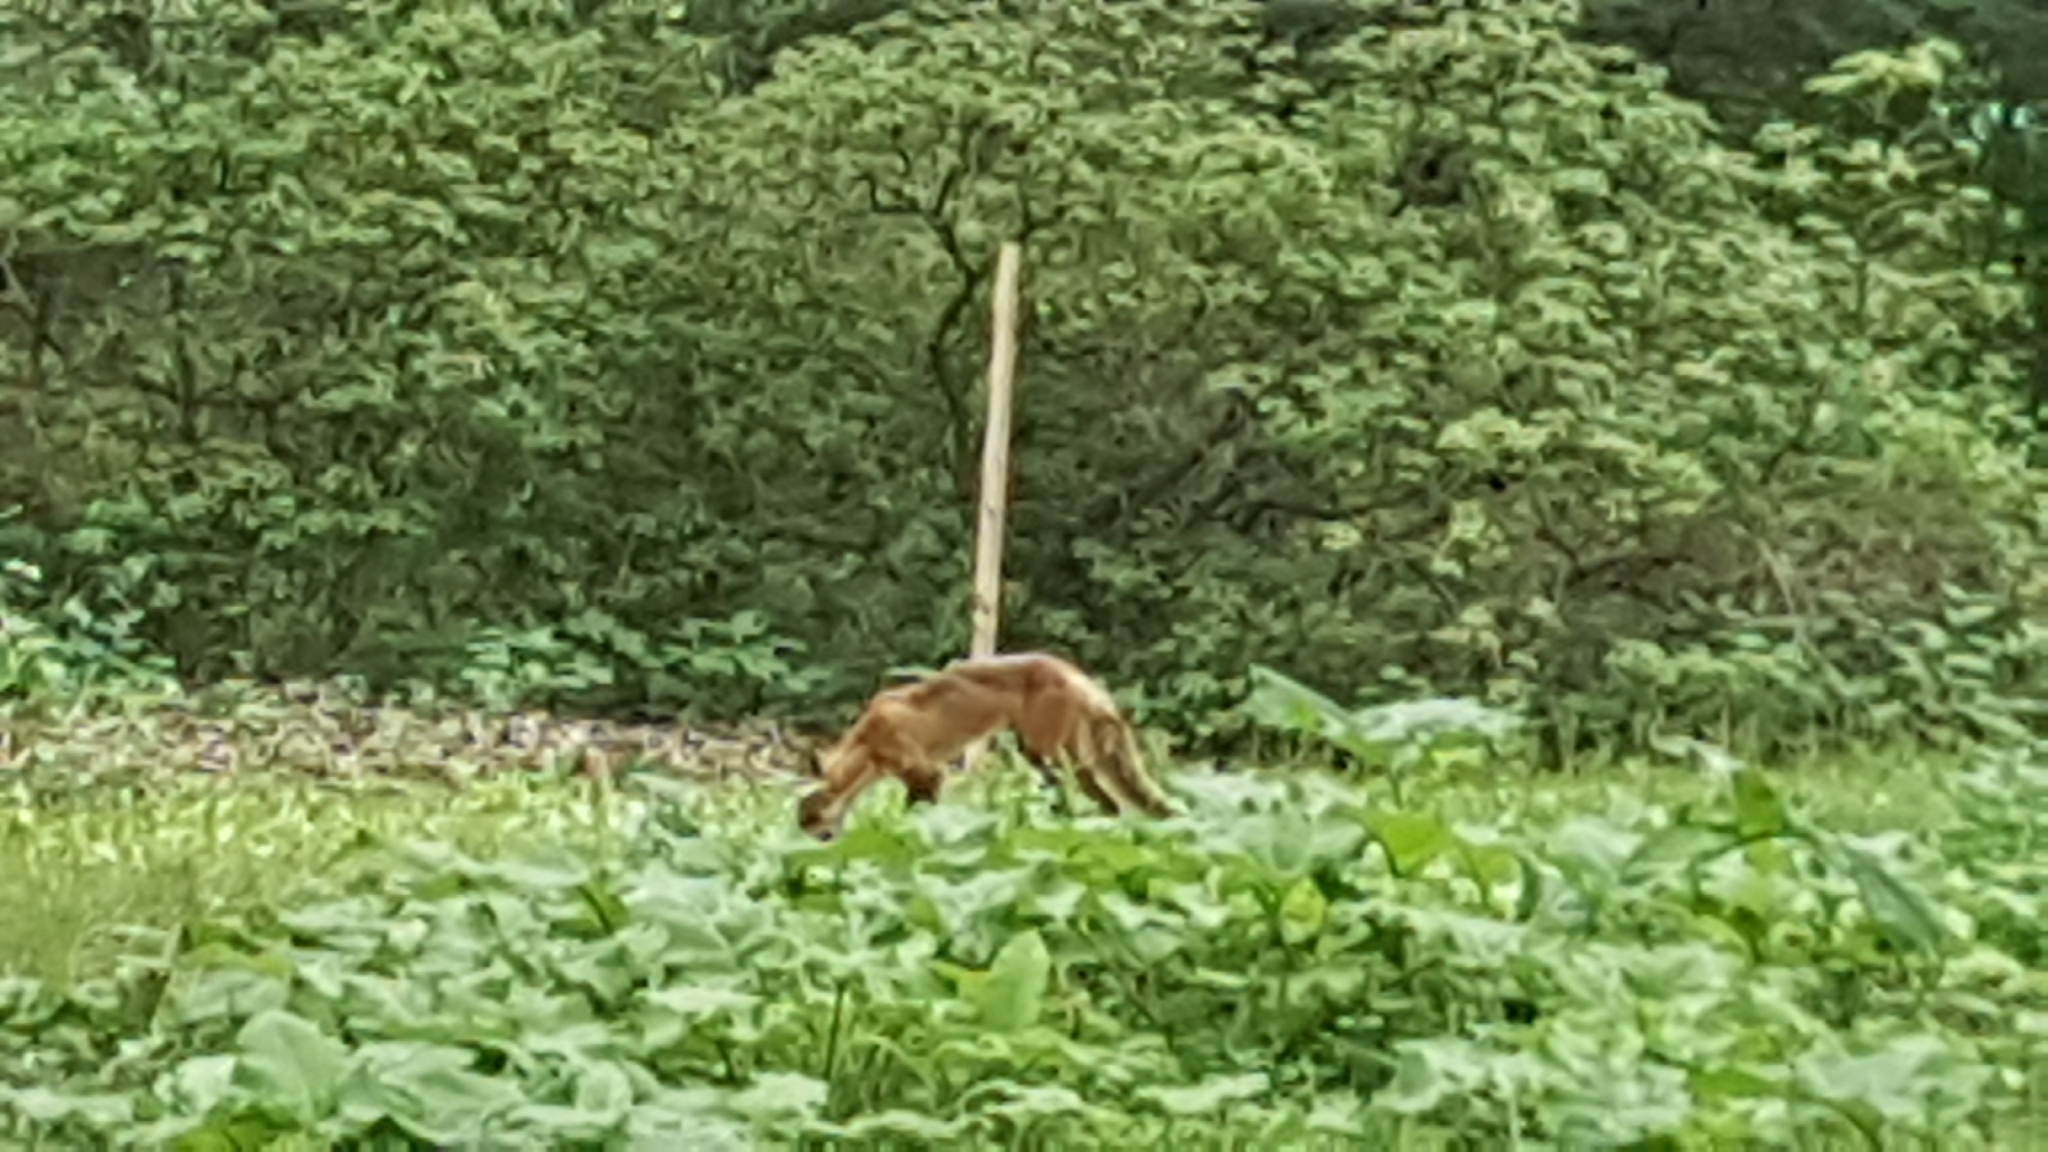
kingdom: Animalia
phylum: Chordata
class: Mammalia
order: Carnivora
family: Canidae
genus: Vulpes
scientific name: Vulpes vulpes
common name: Red fox
